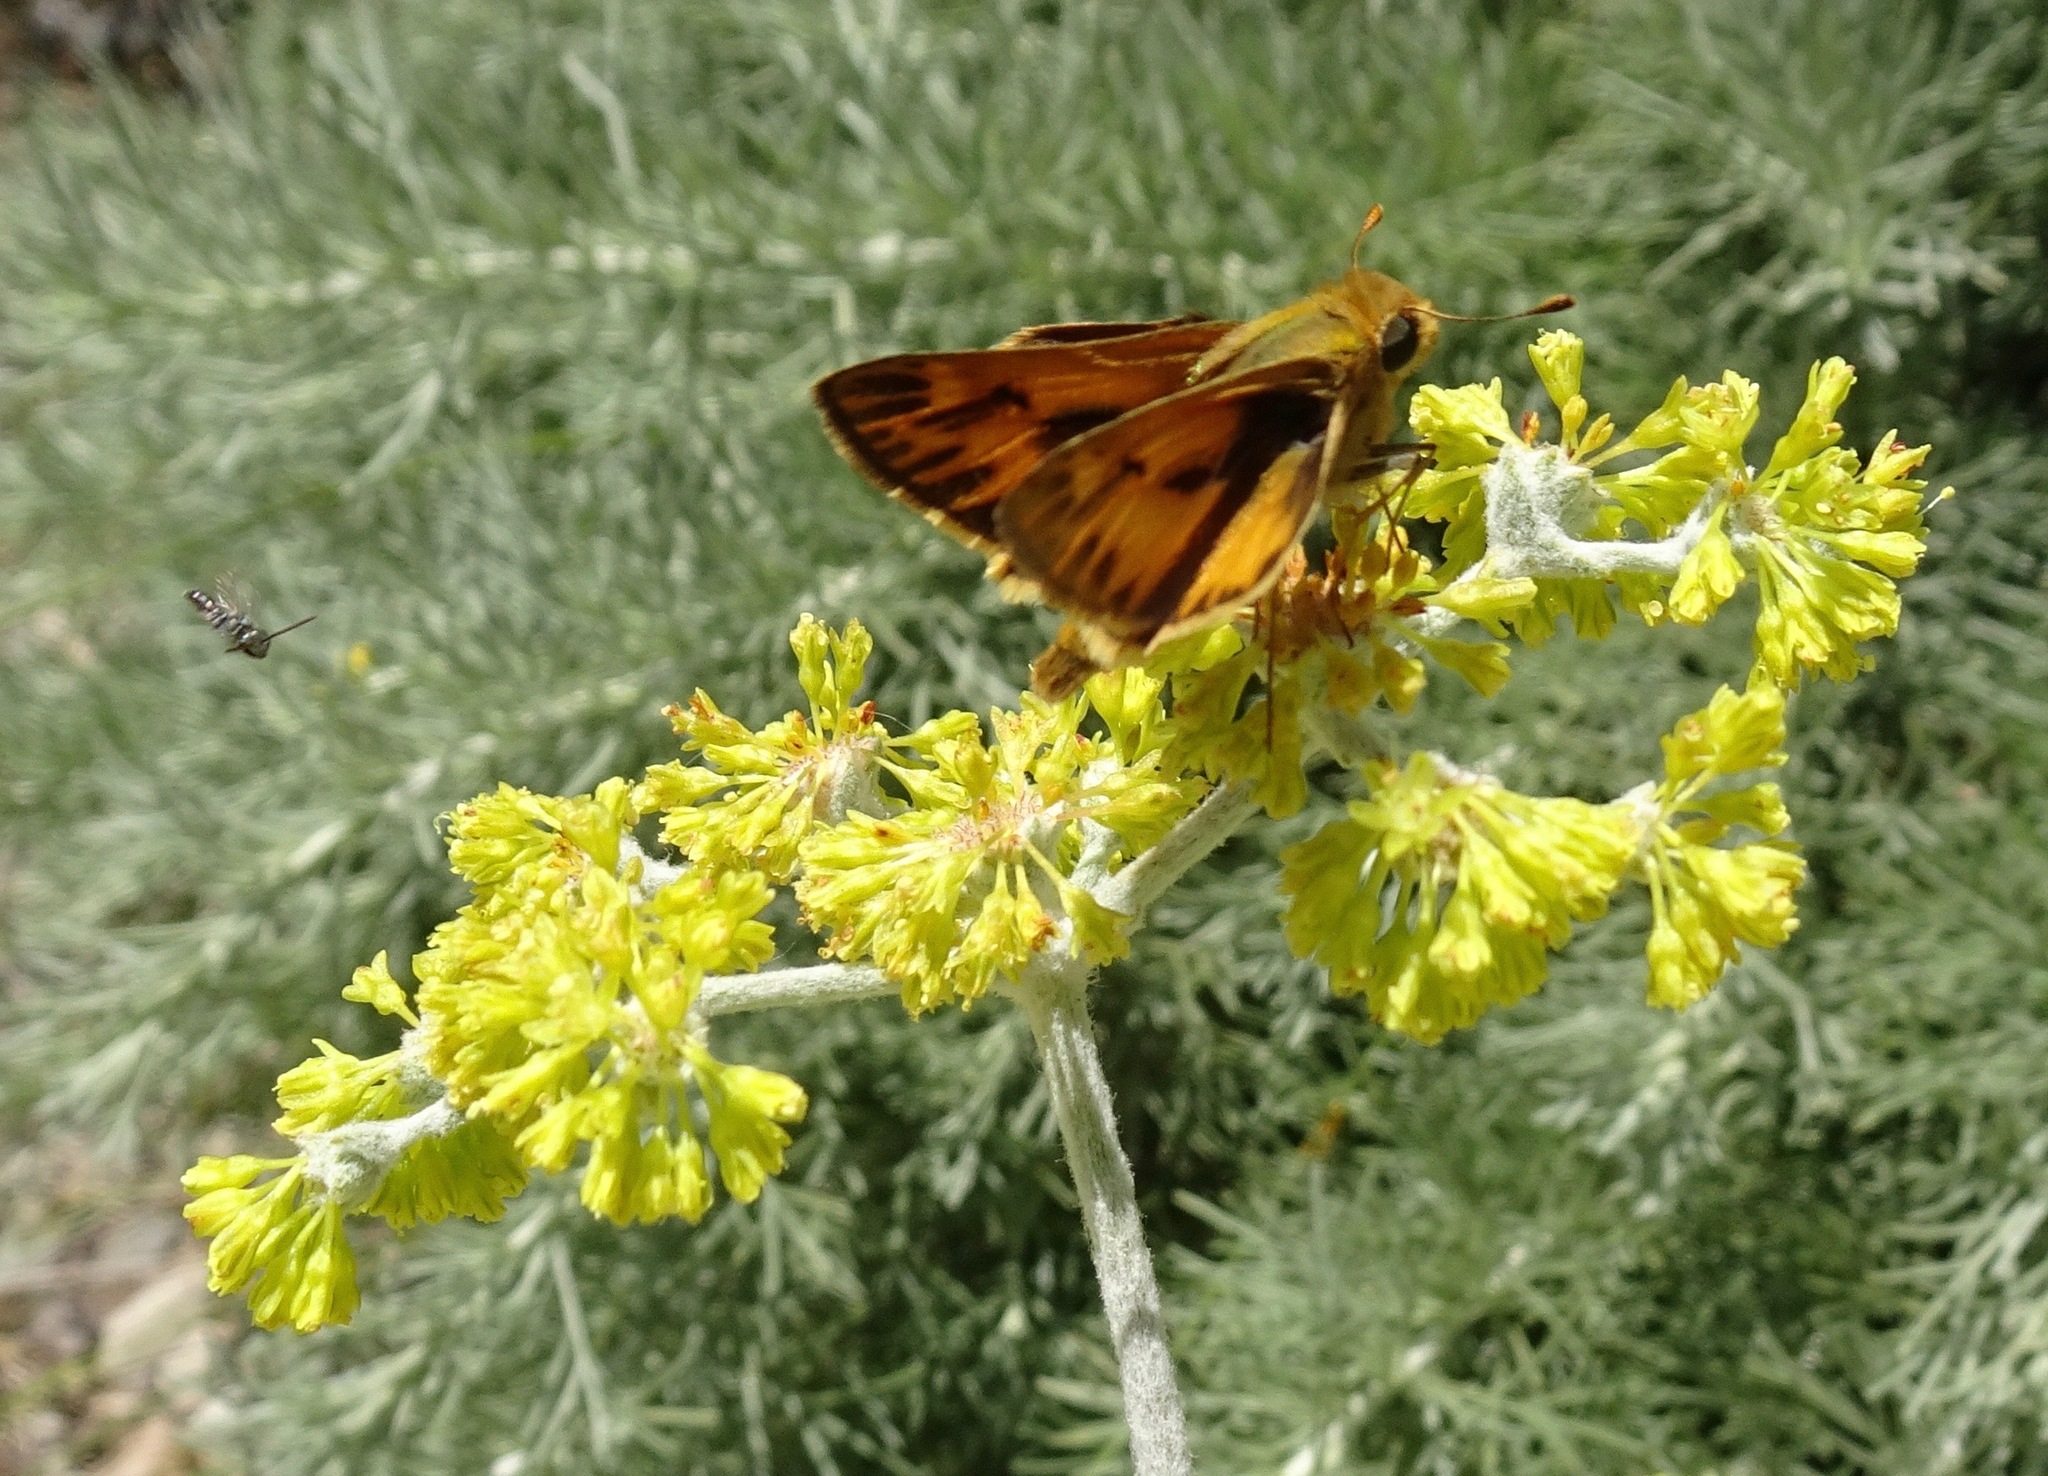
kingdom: Animalia
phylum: Arthropoda
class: Insecta
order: Lepidoptera
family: Hesperiidae
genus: Hylephila
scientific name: Hylephila phyleus
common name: Fiery skipper
